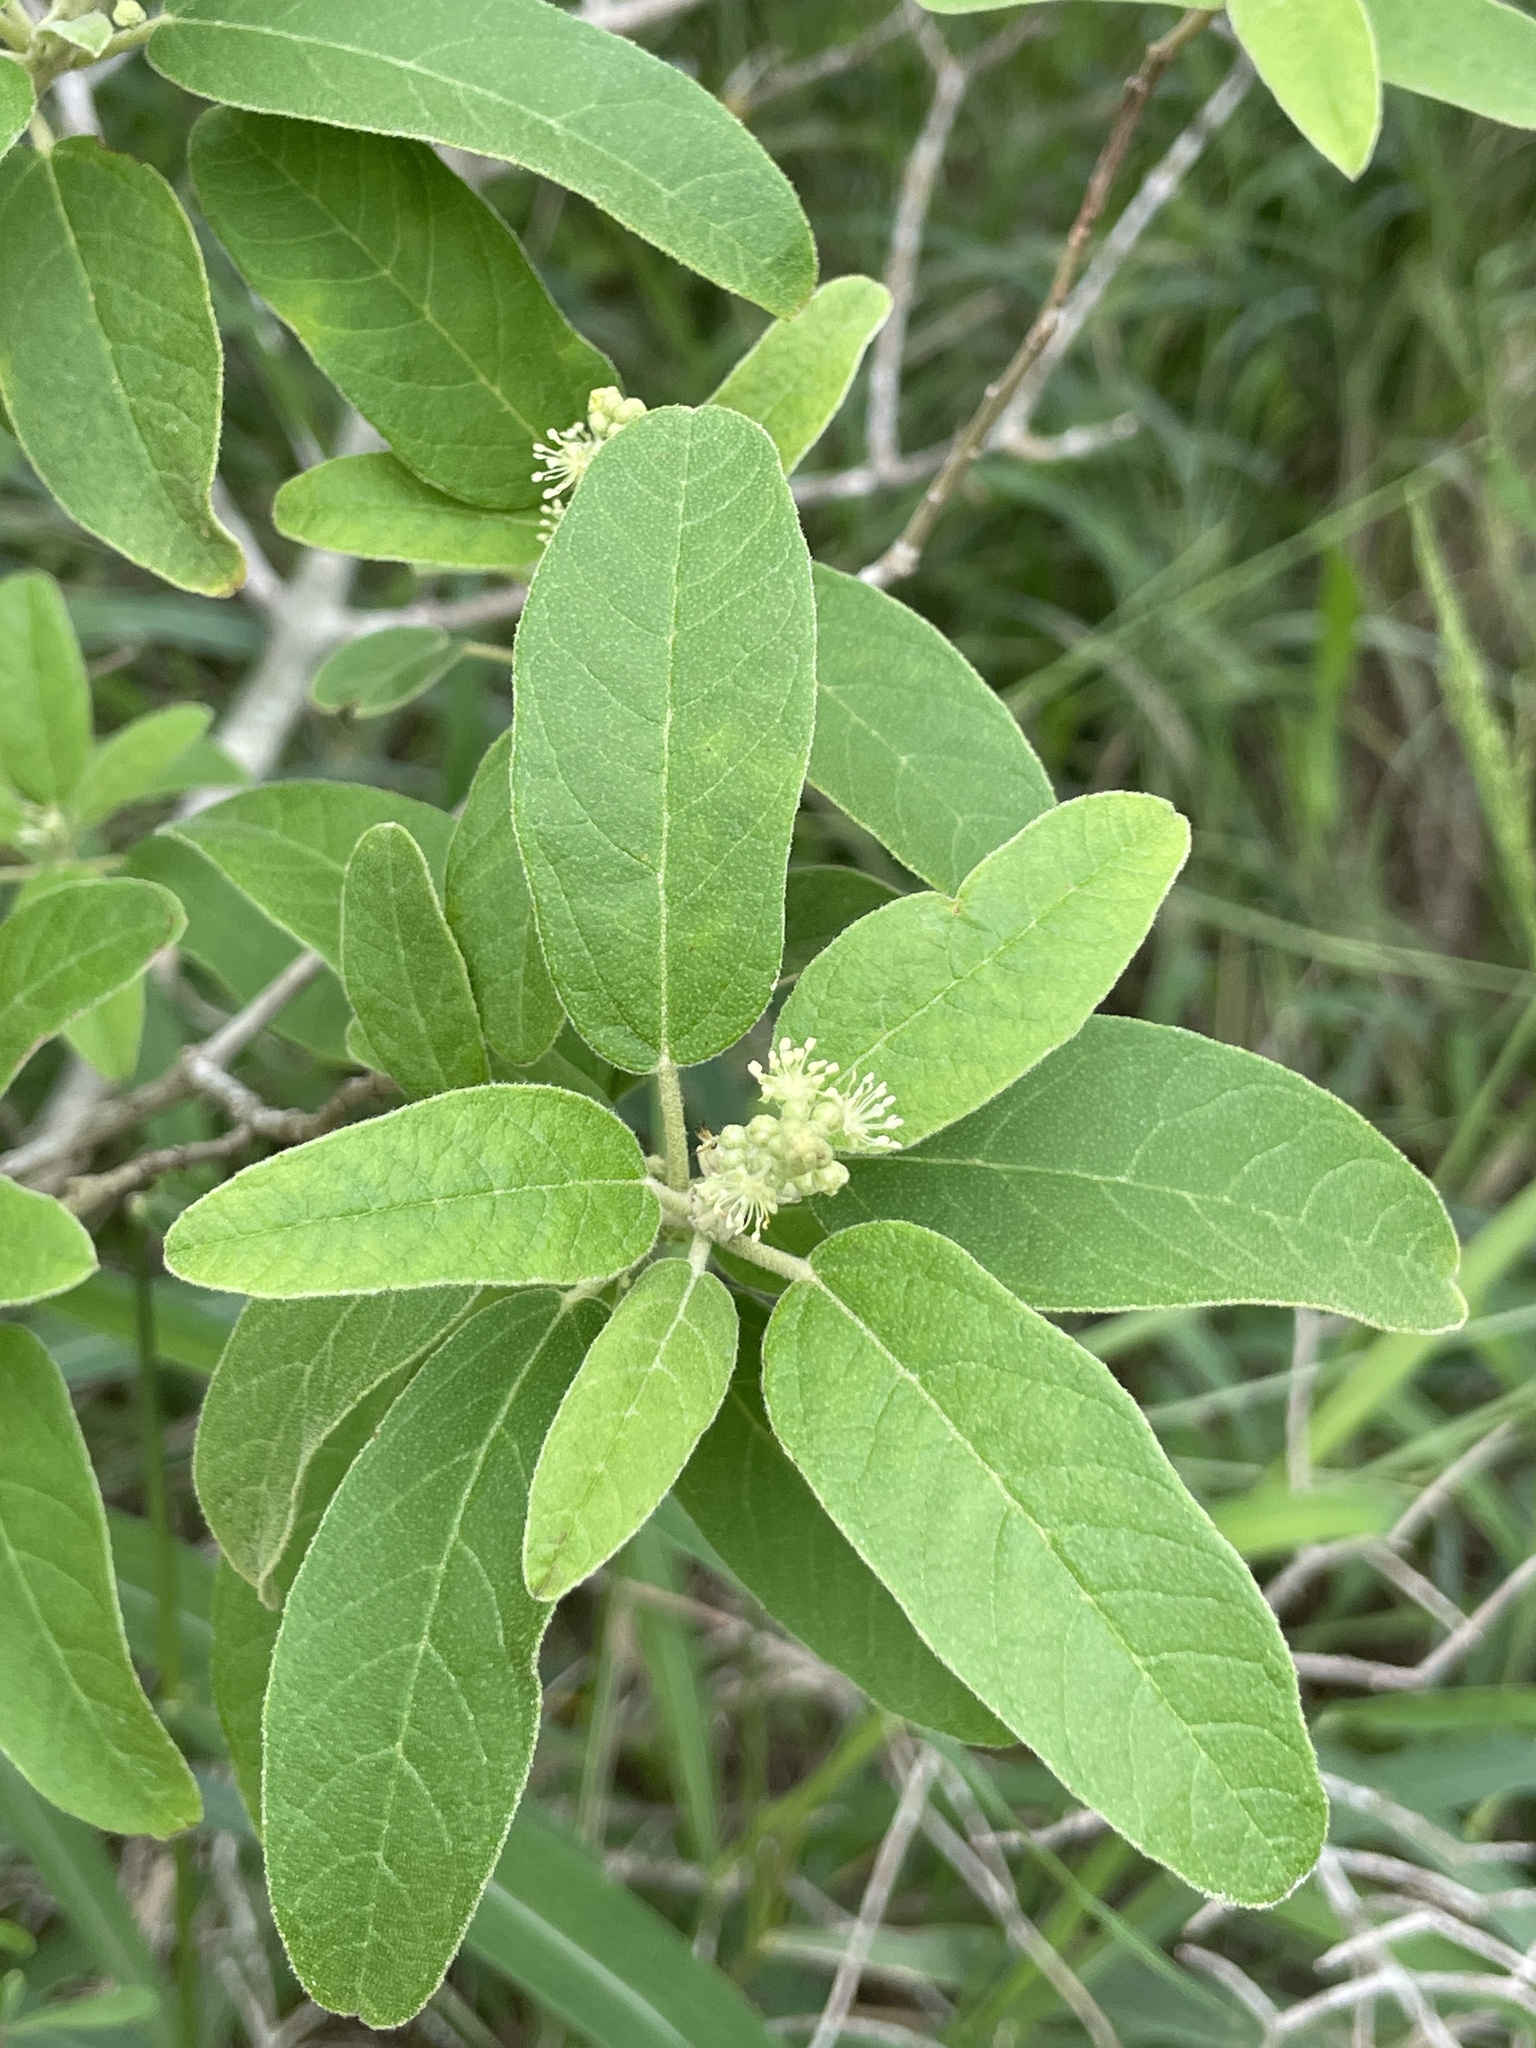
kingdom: Plantae
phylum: Tracheophyta
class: Magnoliopsida
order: Malpighiales
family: Euphorbiaceae
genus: Croton
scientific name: Croton incanus
